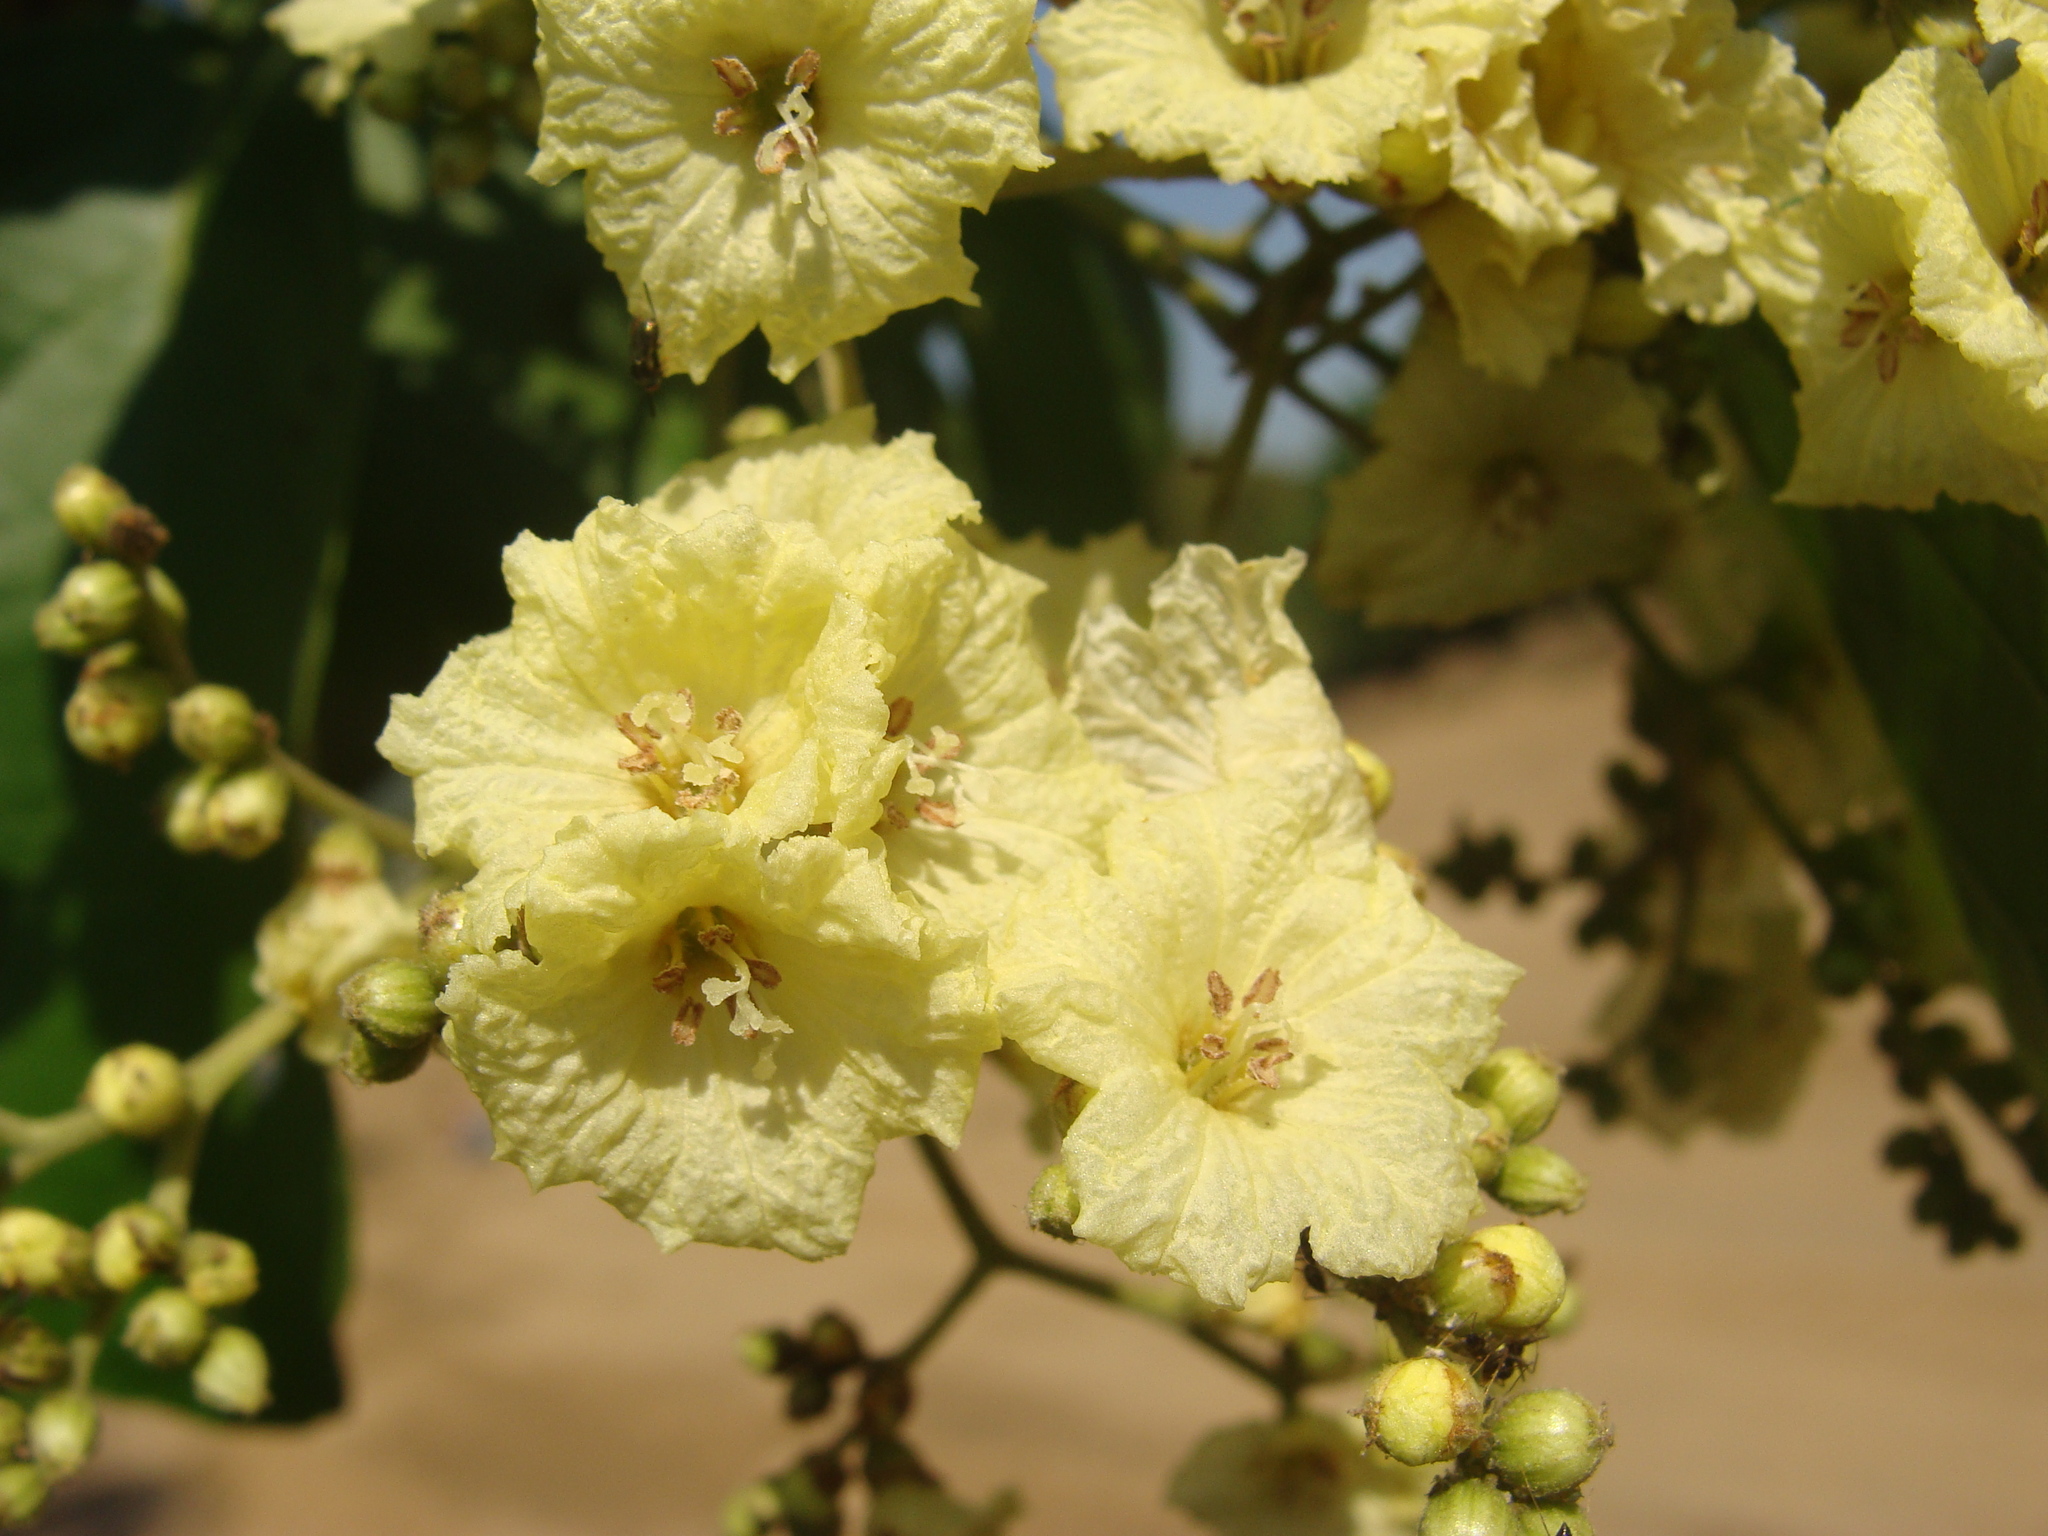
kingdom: Plantae
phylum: Tracheophyta
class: Magnoliopsida
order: Boraginales
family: Cordiaceae
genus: Cordia
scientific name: Cordia dentata
